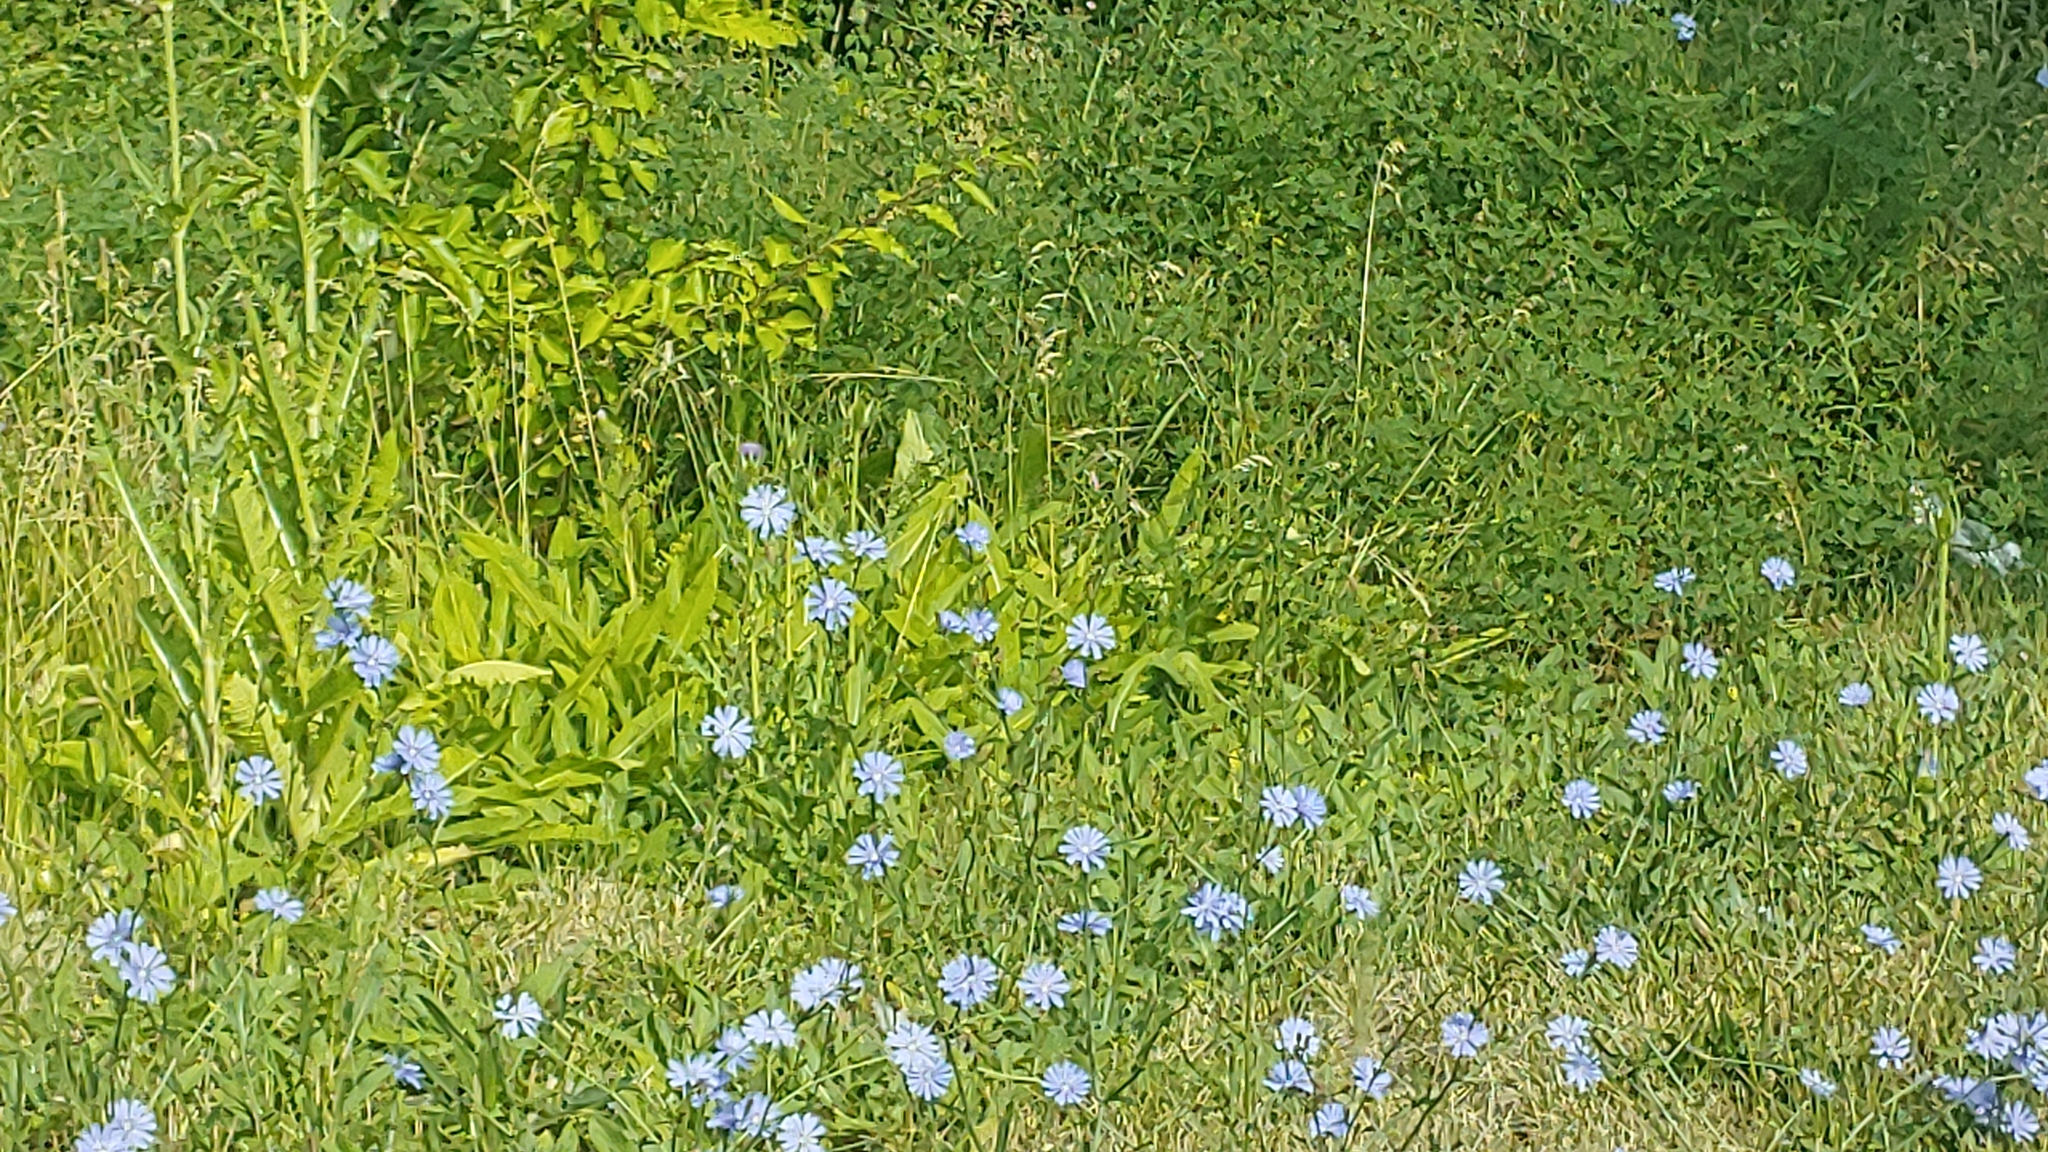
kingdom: Plantae
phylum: Tracheophyta
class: Magnoliopsida
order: Asterales
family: Asteraceae
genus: Cichorium
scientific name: Cichorium intybus
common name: Chicory
